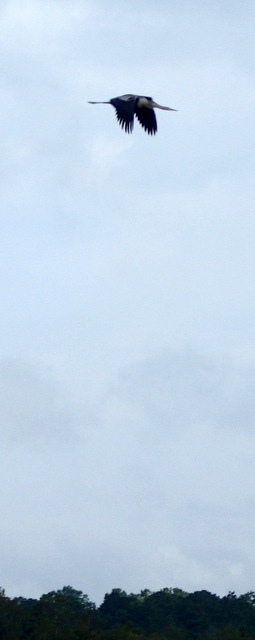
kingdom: Animalia
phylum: Chordata
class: Aves
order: Suliformes
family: Anhingidae
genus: Anhinga
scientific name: Anhinga anhinga
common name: Anhinga
